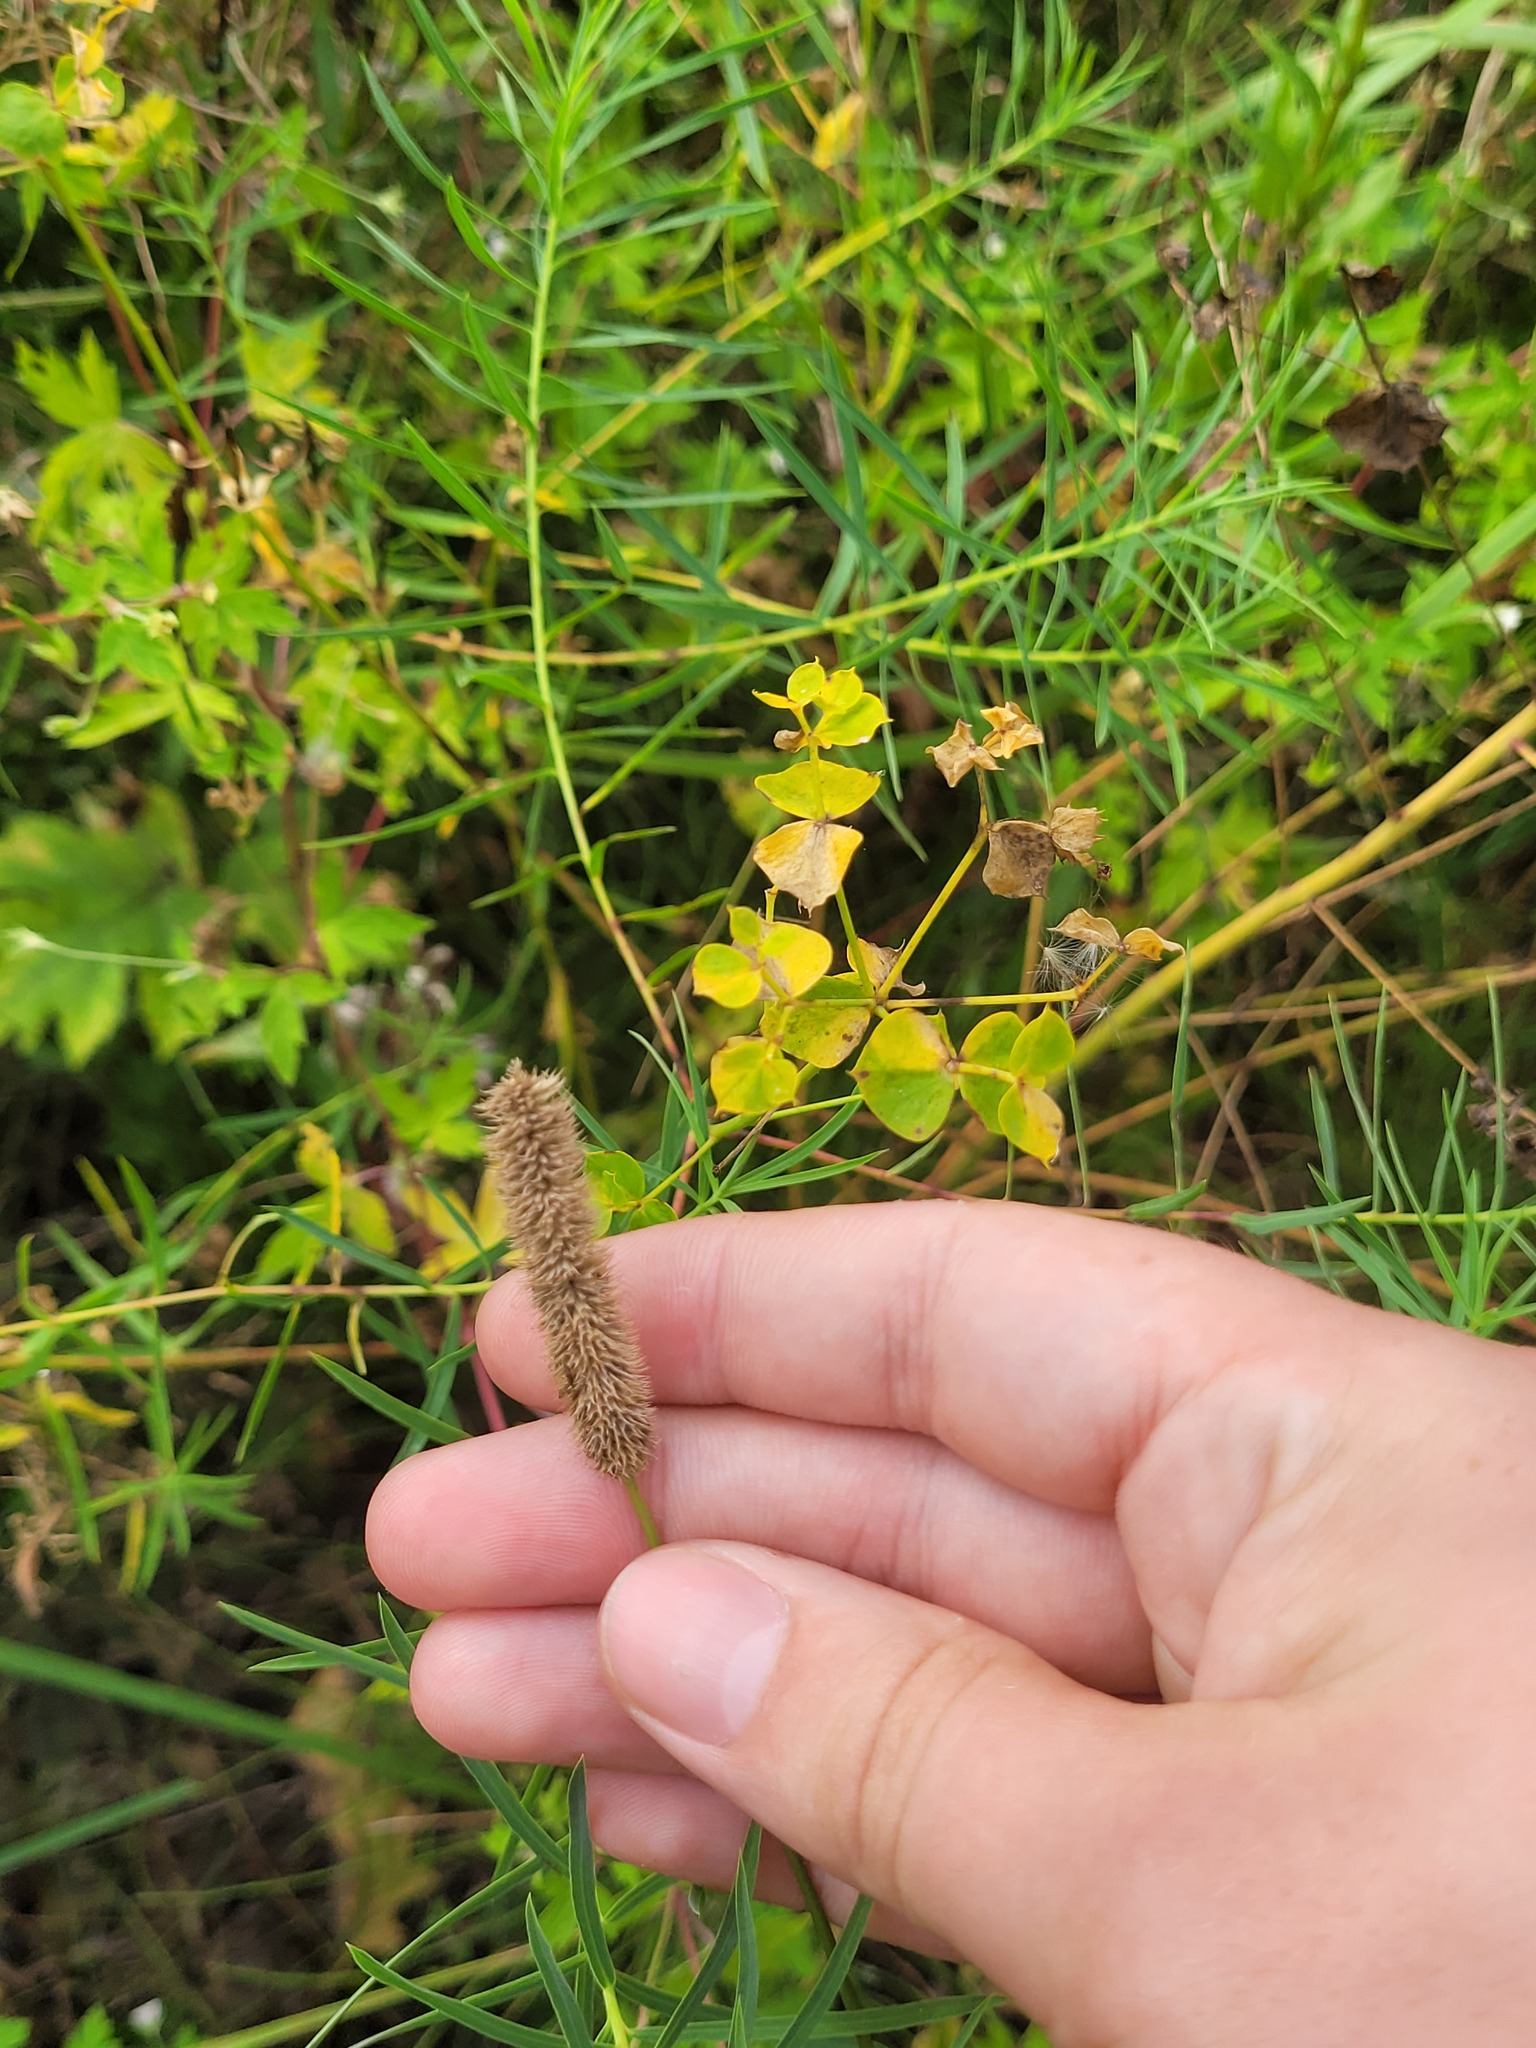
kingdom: Plantae
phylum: Tracheophyta
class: Liliopsida
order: Poales
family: Poaceae
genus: Phleum
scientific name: Phleum pratense
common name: Timothy grass
